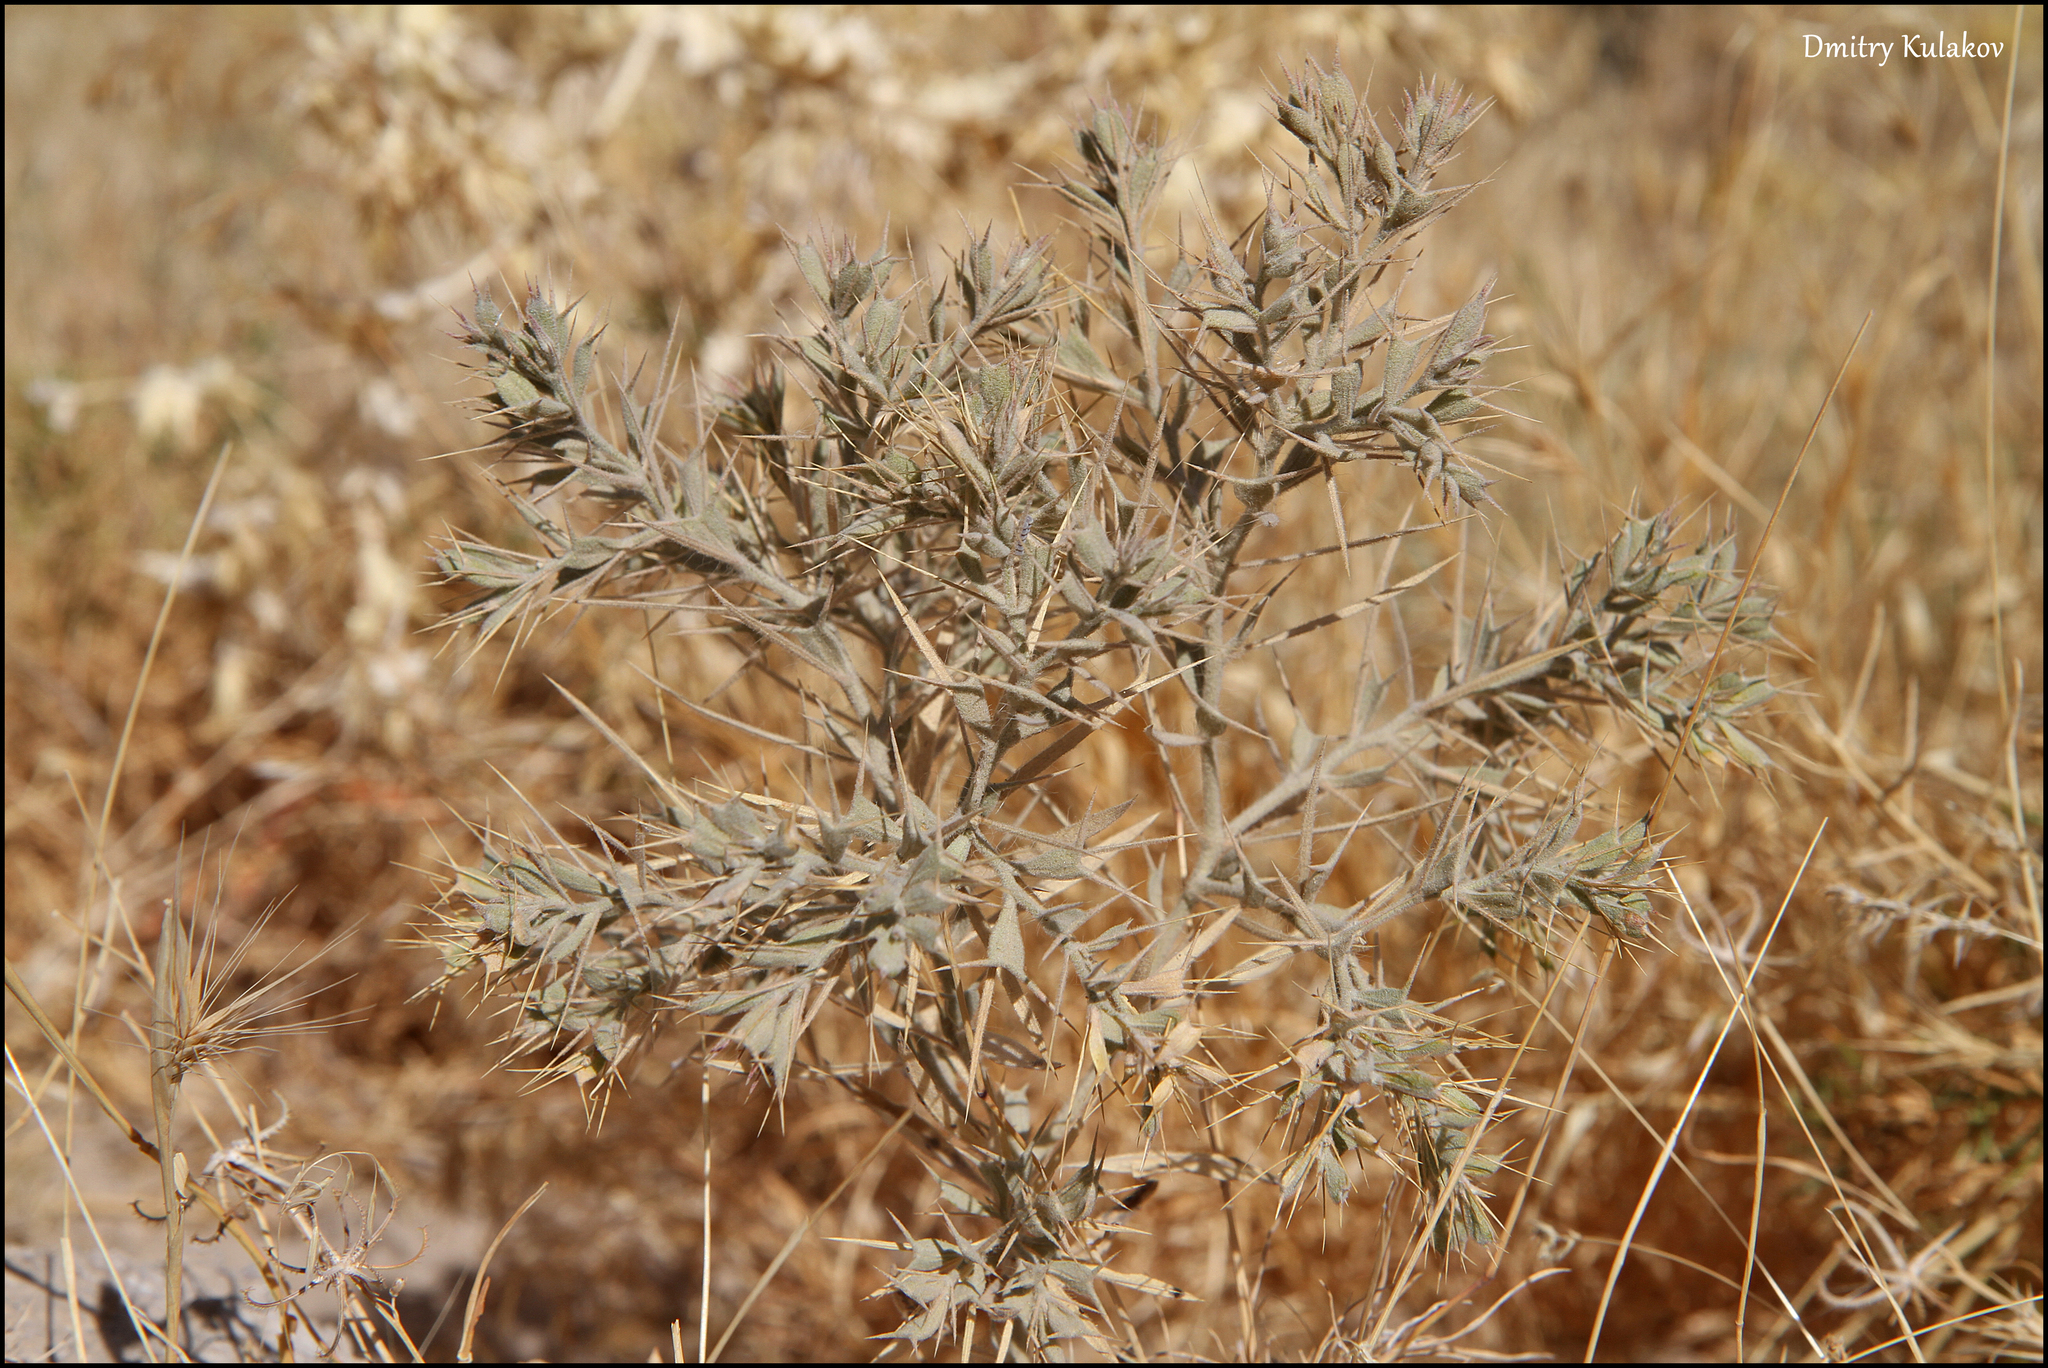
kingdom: Plantae
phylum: Tracheophyta
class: Magnoliopsida
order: Caryophyllales
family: Amaranthaceae
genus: Ceratocarpus
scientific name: Ceratocarpus arenarius
